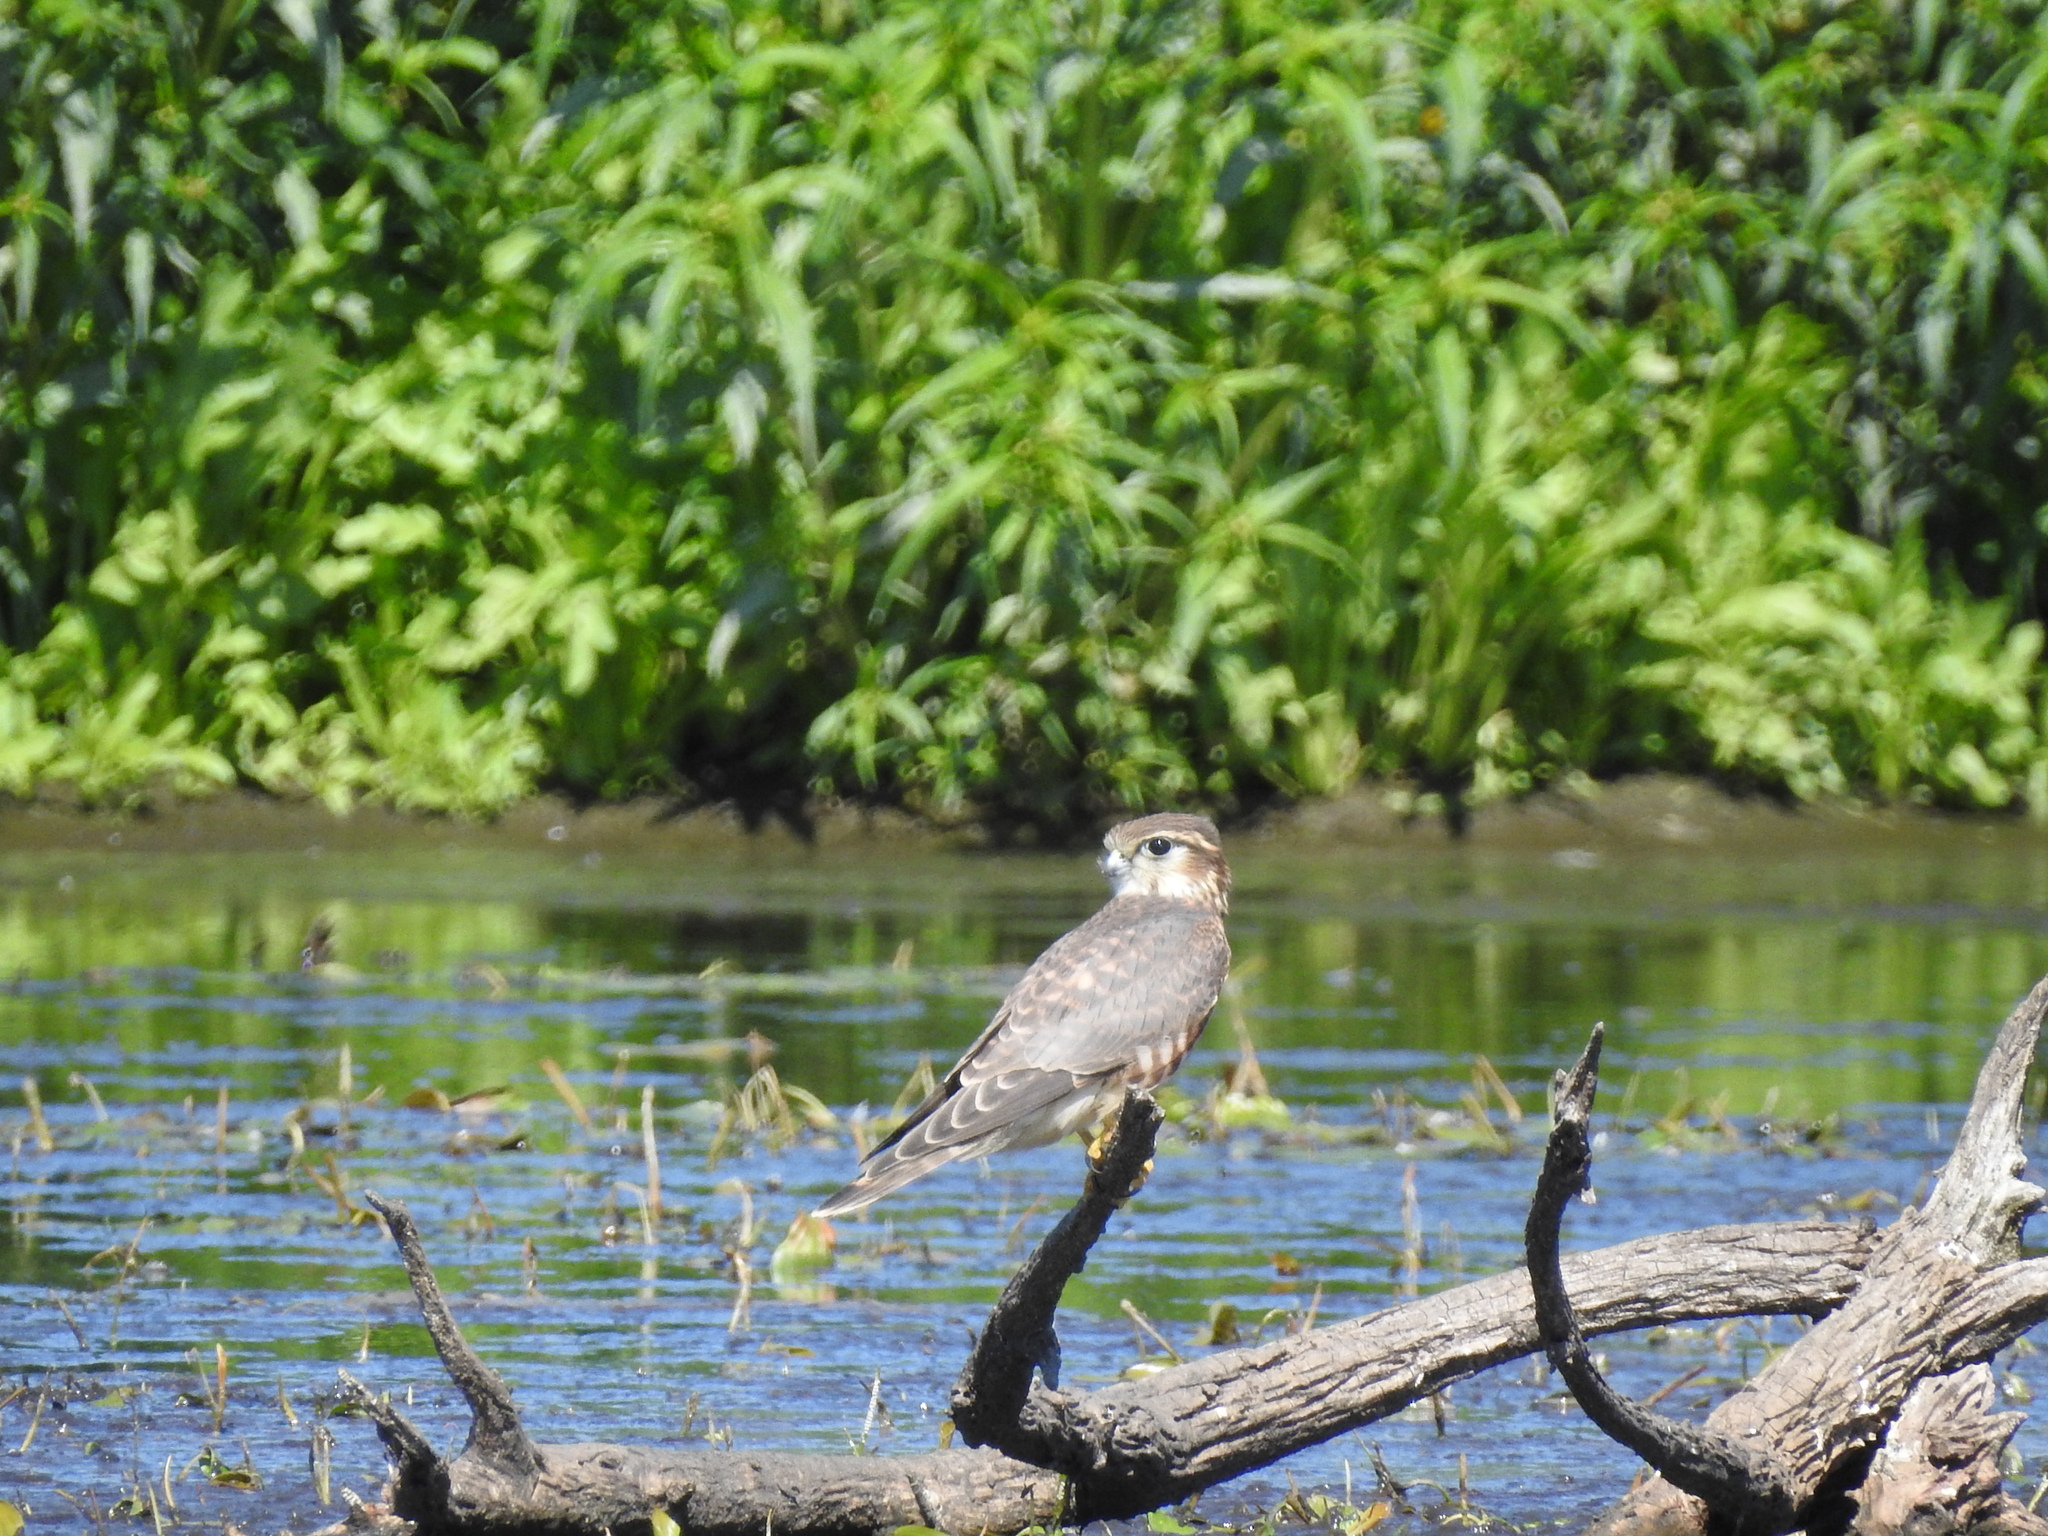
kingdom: Animalia
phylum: Chordata
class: Aves
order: Falconiformes
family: Falconidae
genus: Falco
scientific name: Falco columbarius
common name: Merlin
